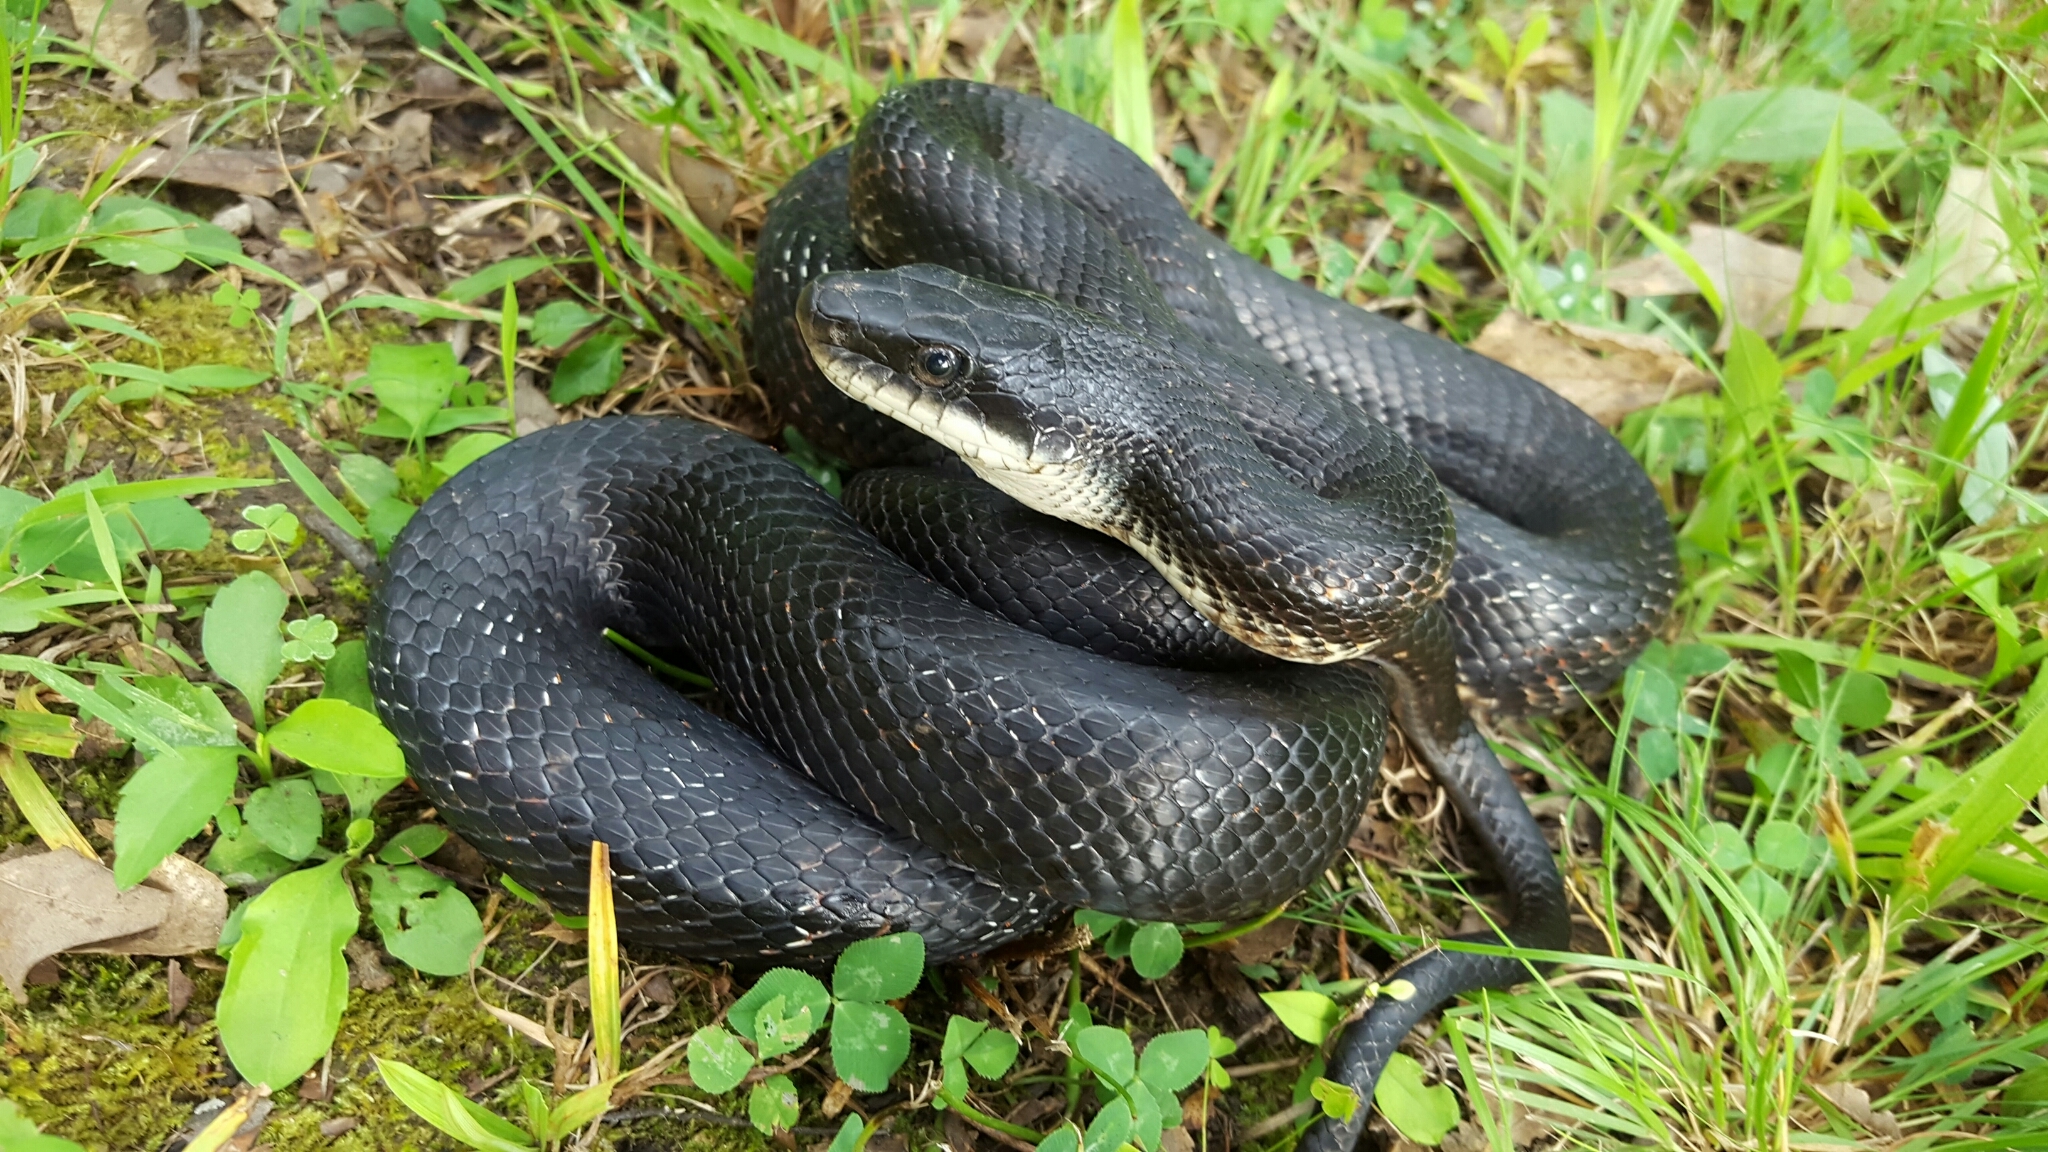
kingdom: Animalia
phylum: Chordata
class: Squamata
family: Colubridae
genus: Pantherophis
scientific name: Pantherophis obsoletus
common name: Black rat snake
